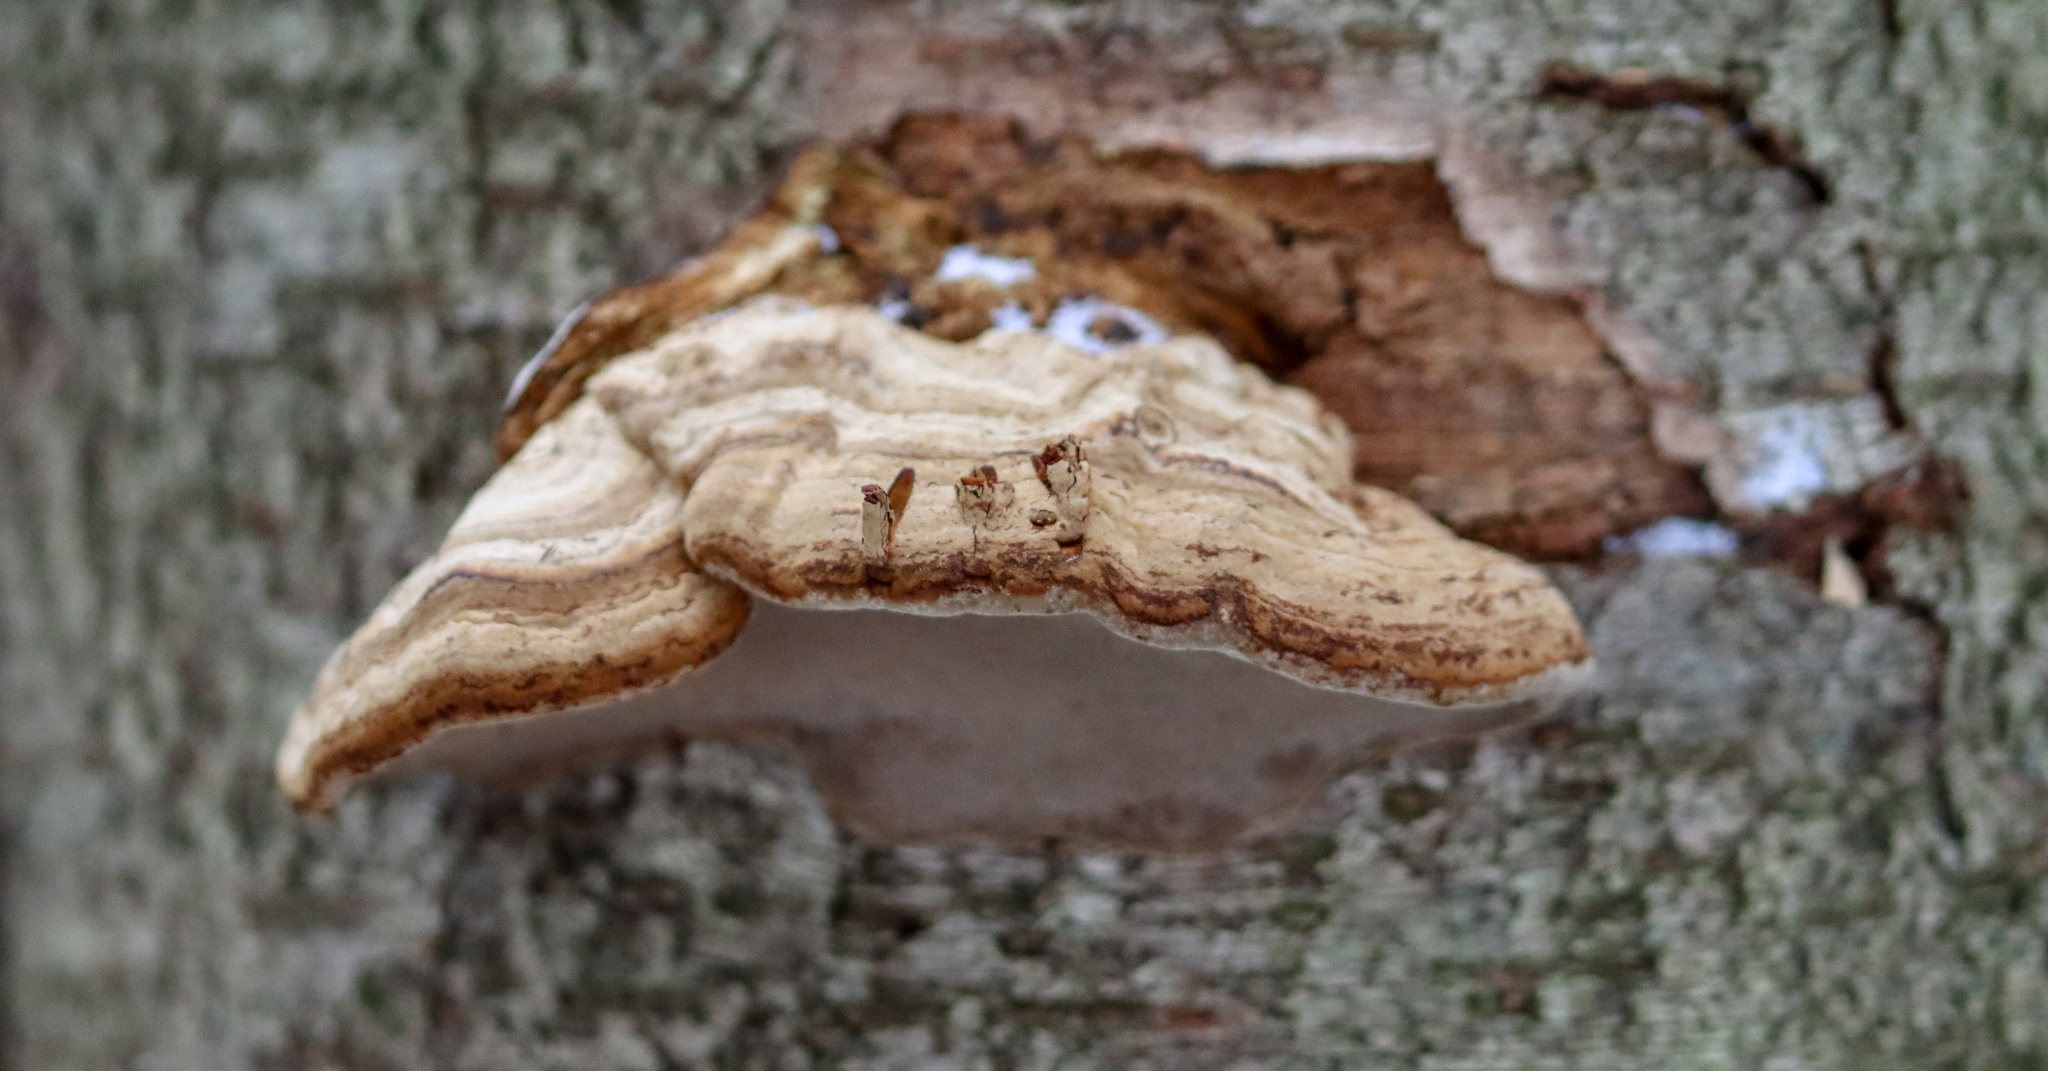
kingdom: Fungi
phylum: Basidiomycota
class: Agaricomycetes
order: Polyporales
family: Polyporaceae
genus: Fomes
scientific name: Fomes fomentarius
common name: Hoof fungus
